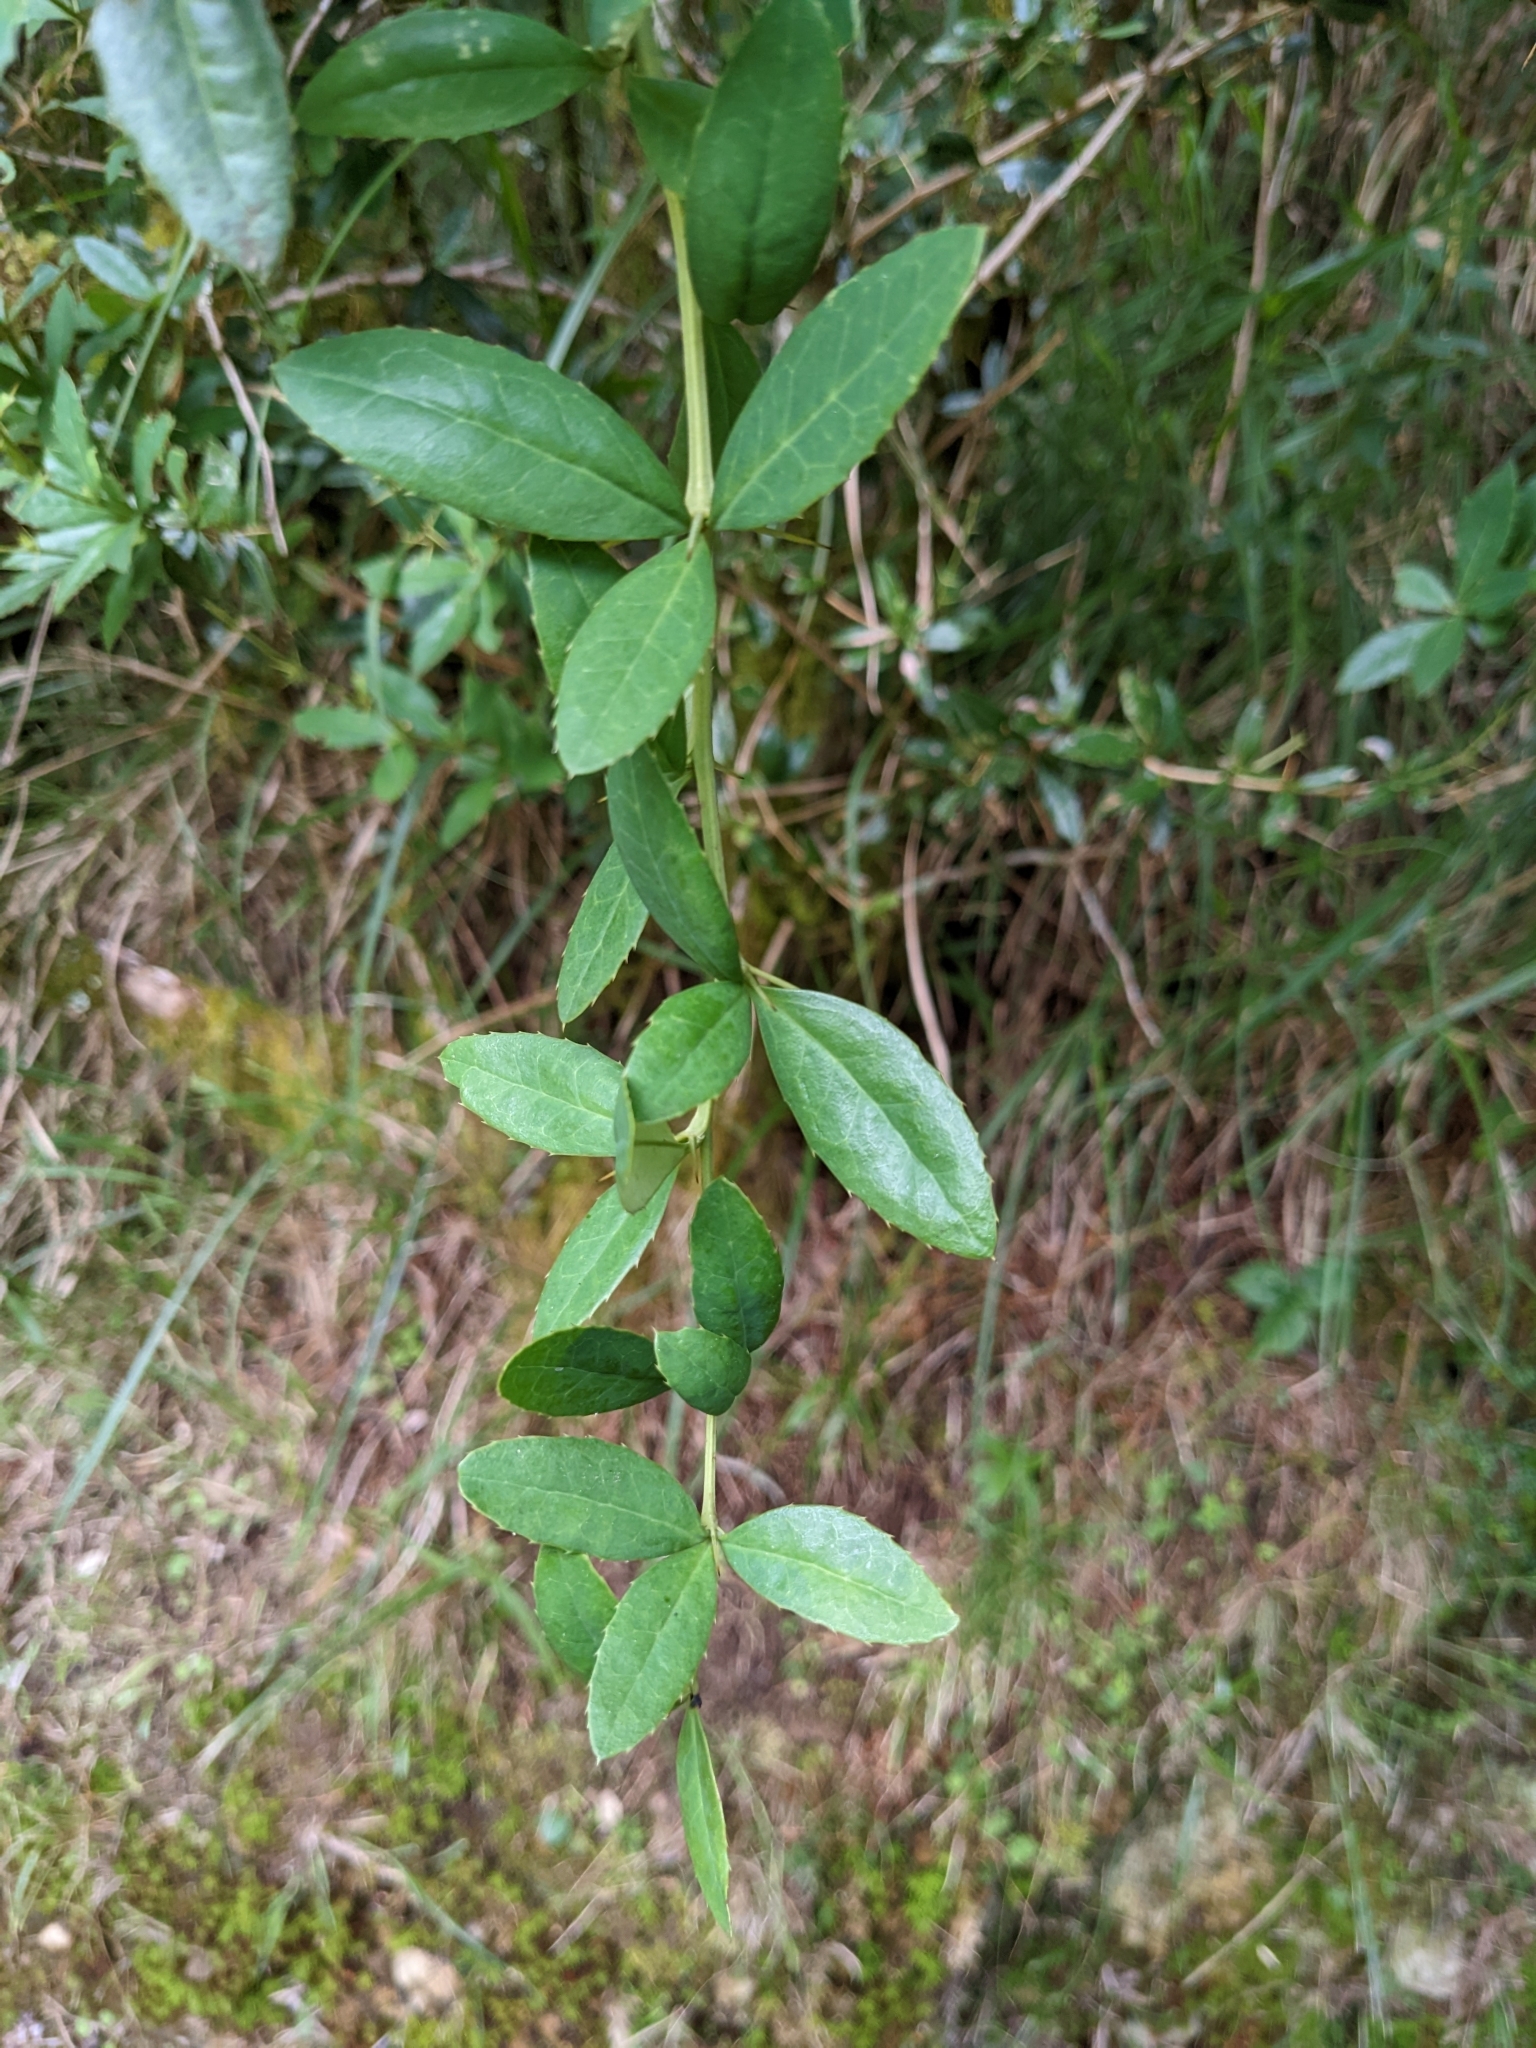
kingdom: Plantae
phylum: Tracheophyta
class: Magnoliopsida
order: Ranunculales
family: Berberidaceae
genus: Berberis
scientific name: Berberis kawakamii
